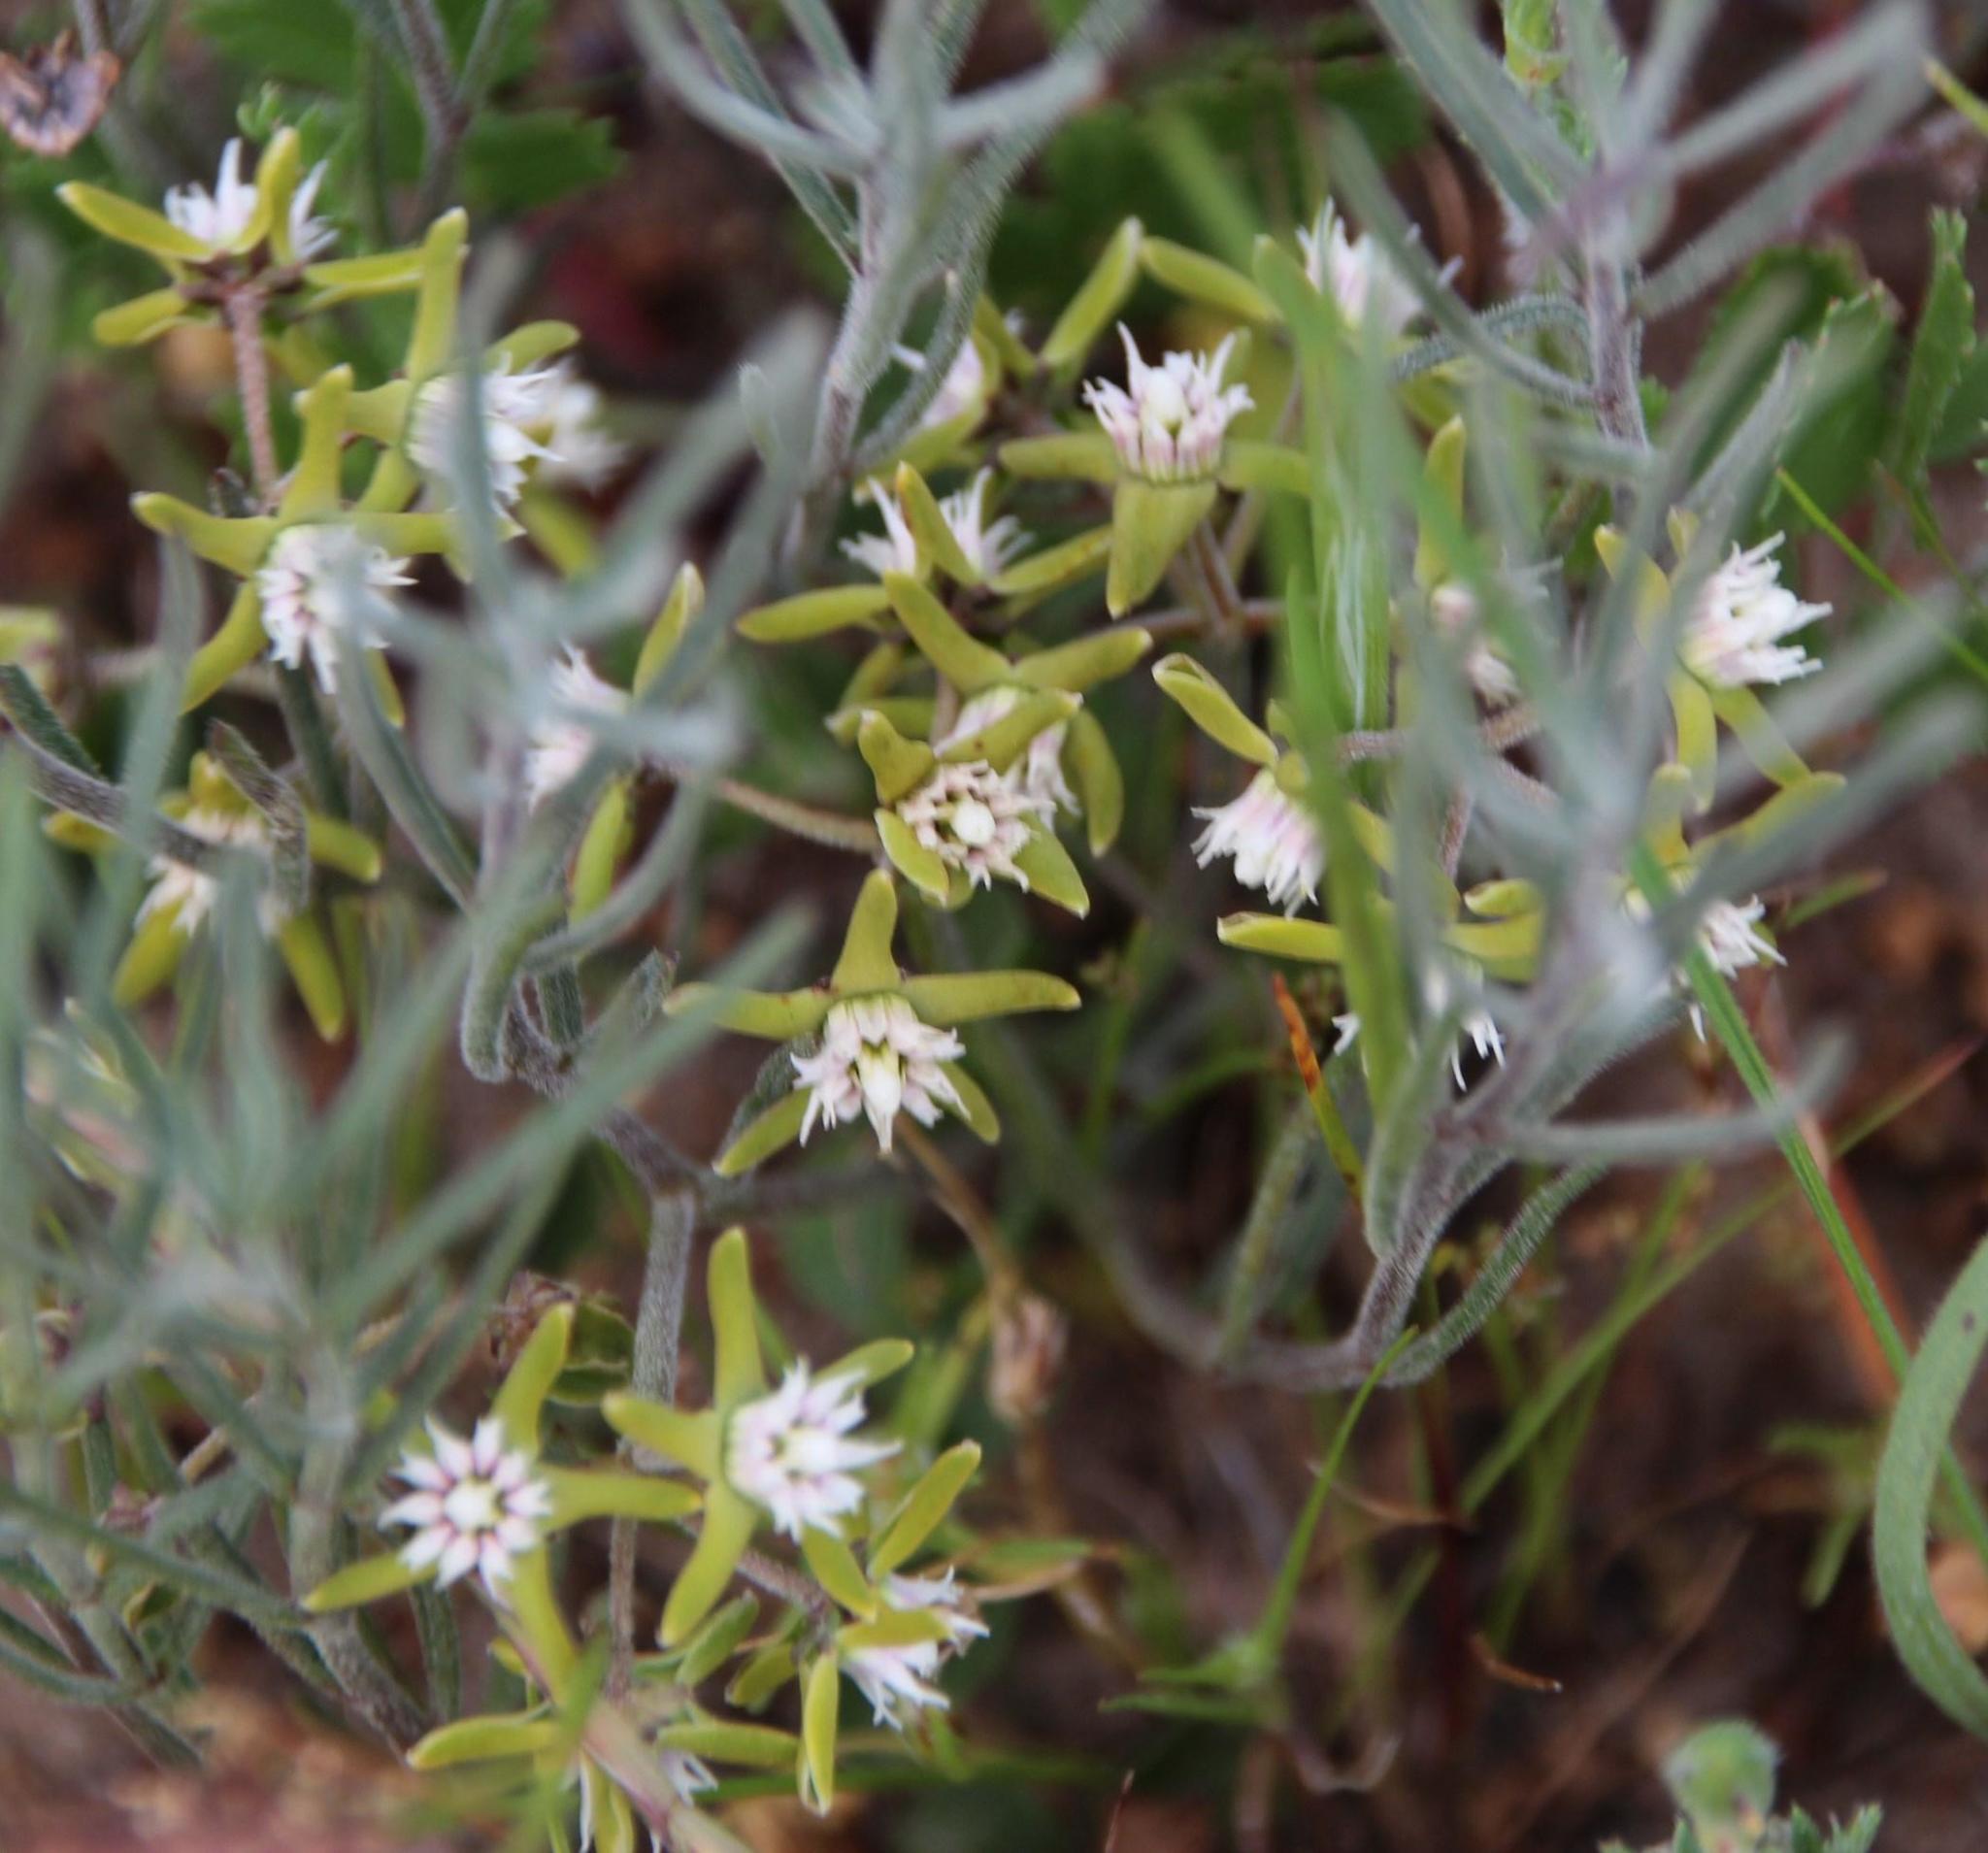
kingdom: Plantae
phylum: Tracheophyta
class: Magnoliopsida
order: Gentianales
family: Apocynaceae
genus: Eustegia
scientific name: Eustegia minuta
